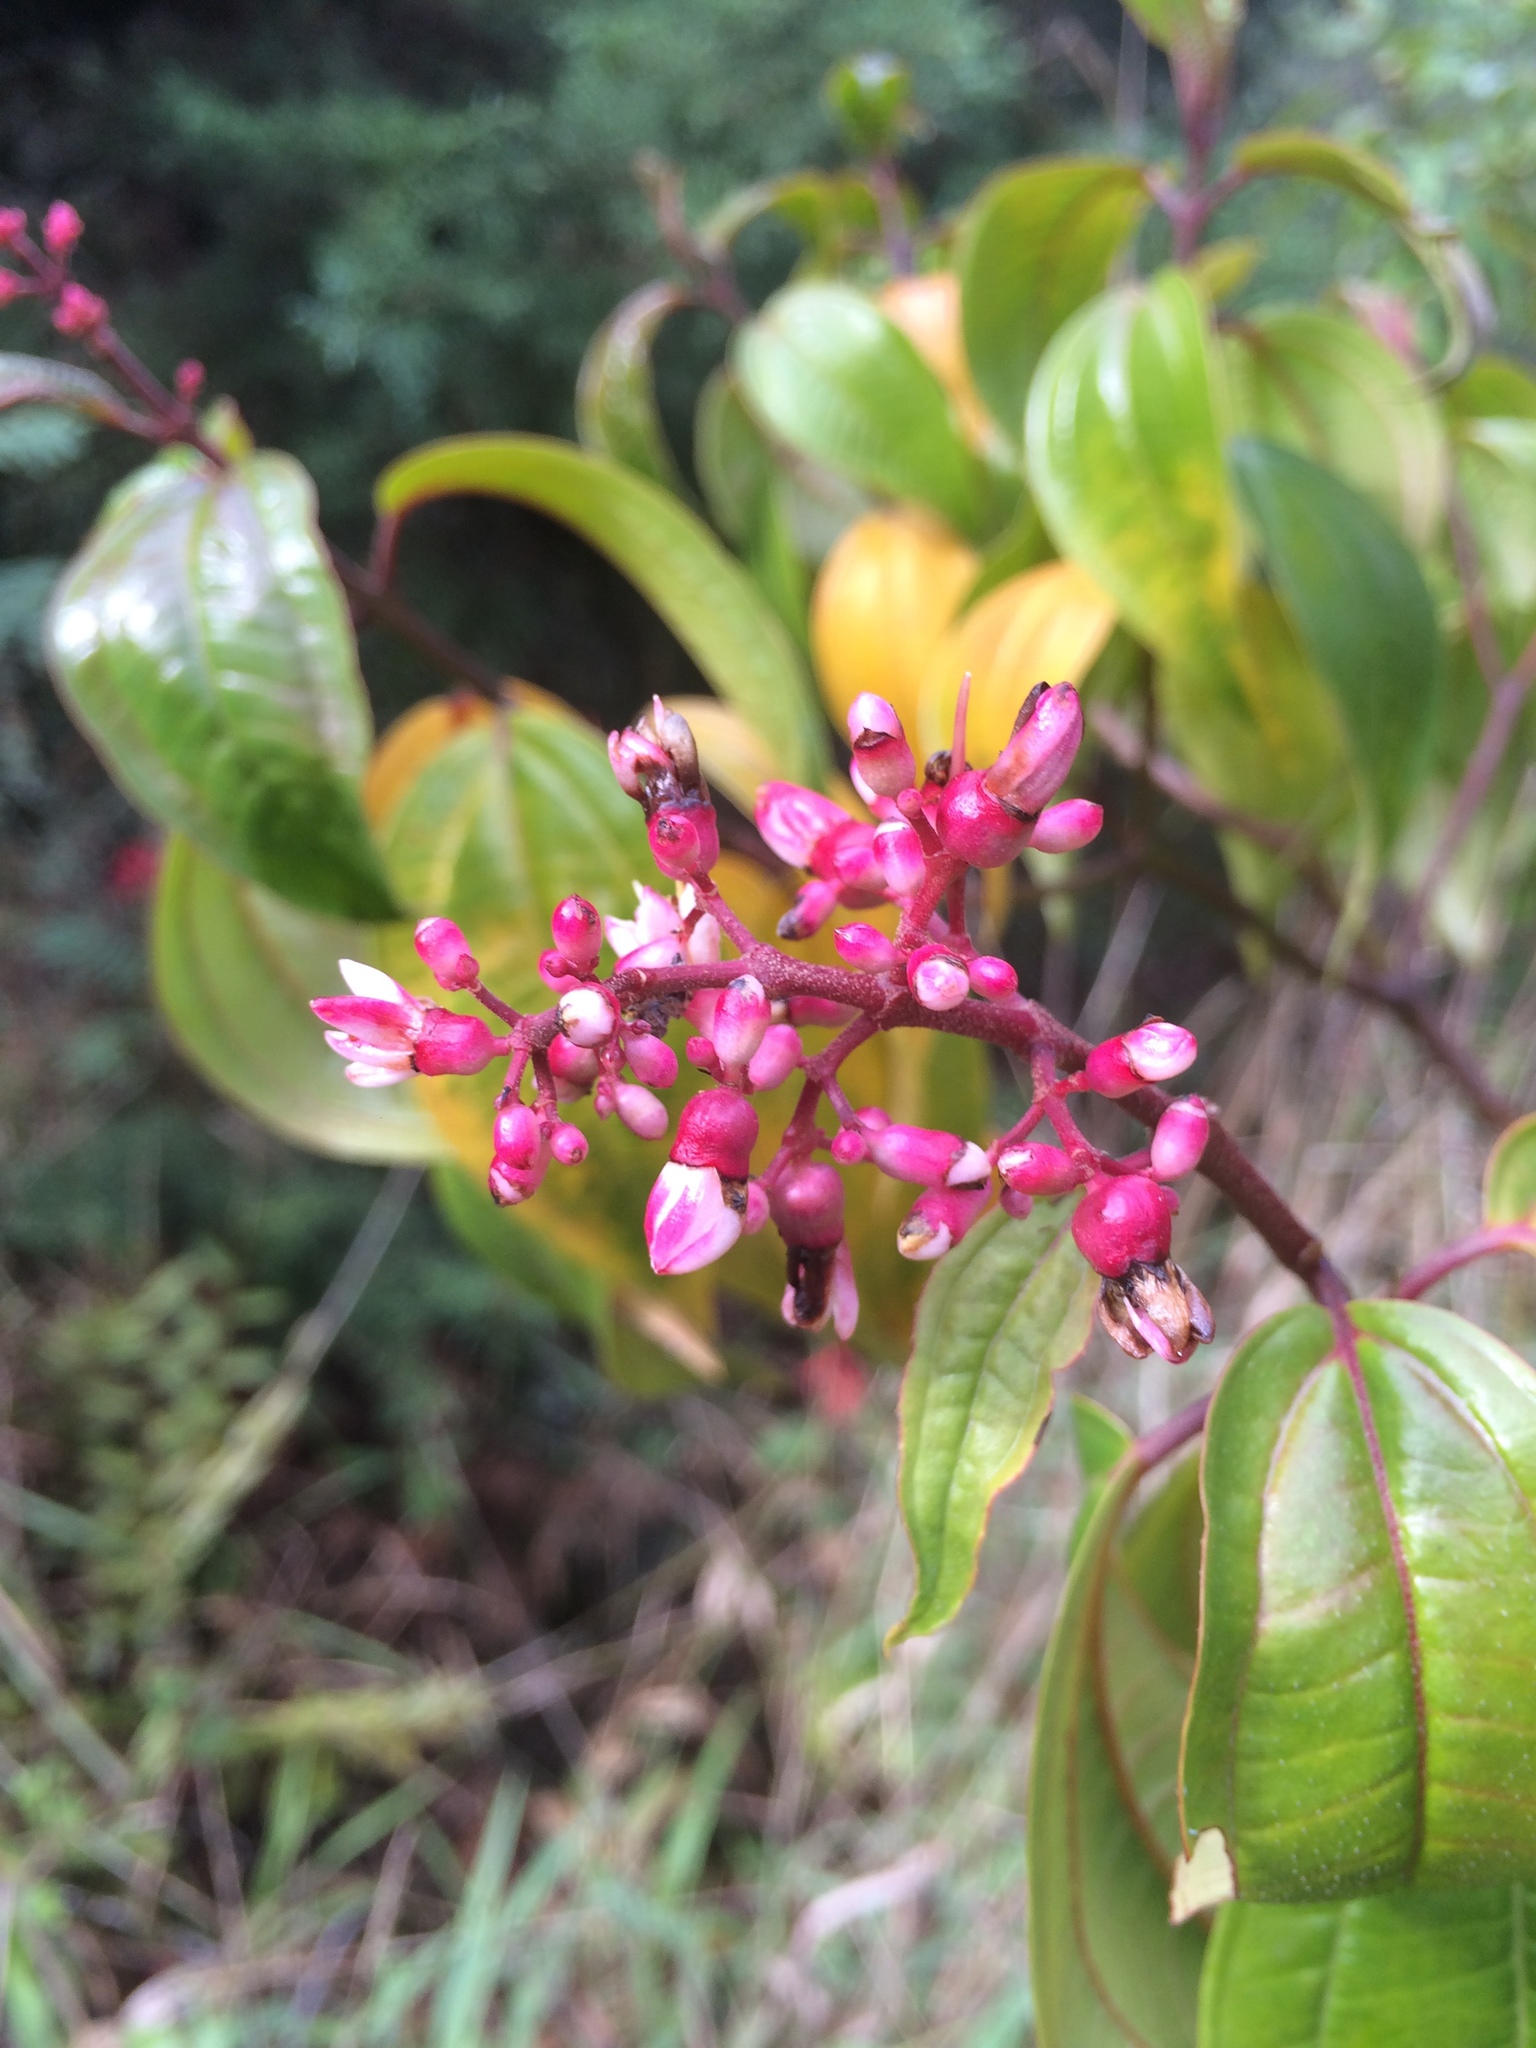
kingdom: Plantae
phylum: Tracheophyta
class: Magnoliopsida
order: Myrtales
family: Melastomataceae
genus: Miconia
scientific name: Miconia mexicana
